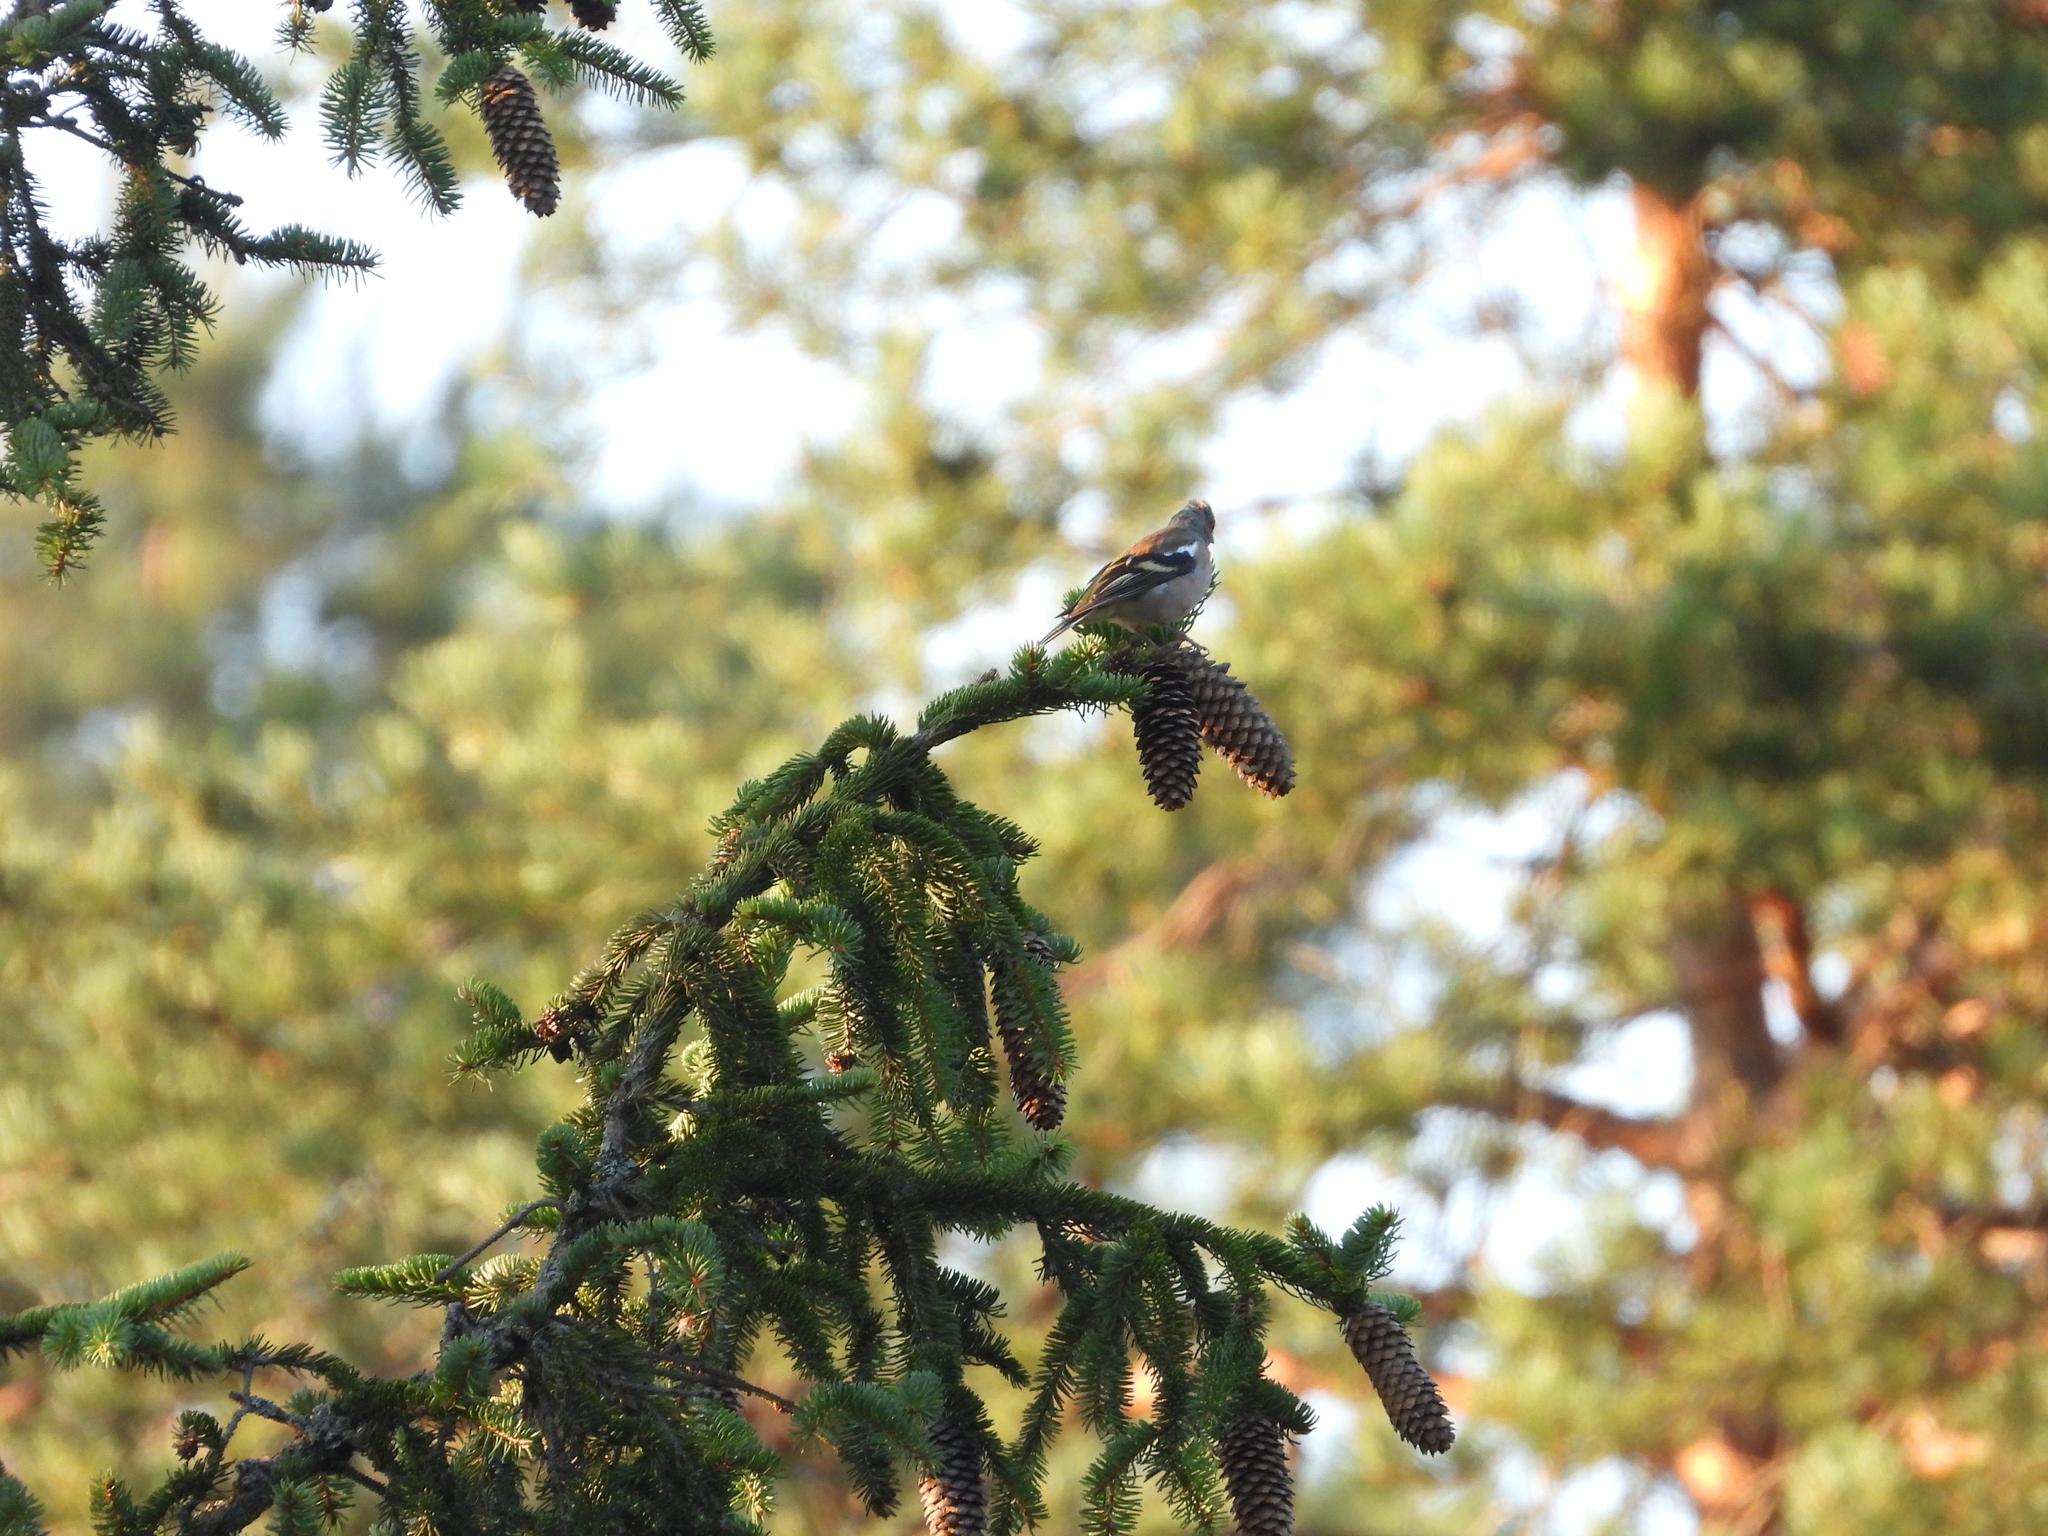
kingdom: Animalia
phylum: Chordata
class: Aves
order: Passeriformes
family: Fringillidae
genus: Fringilla
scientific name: Fringilla coelebs
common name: Common chaffinch
